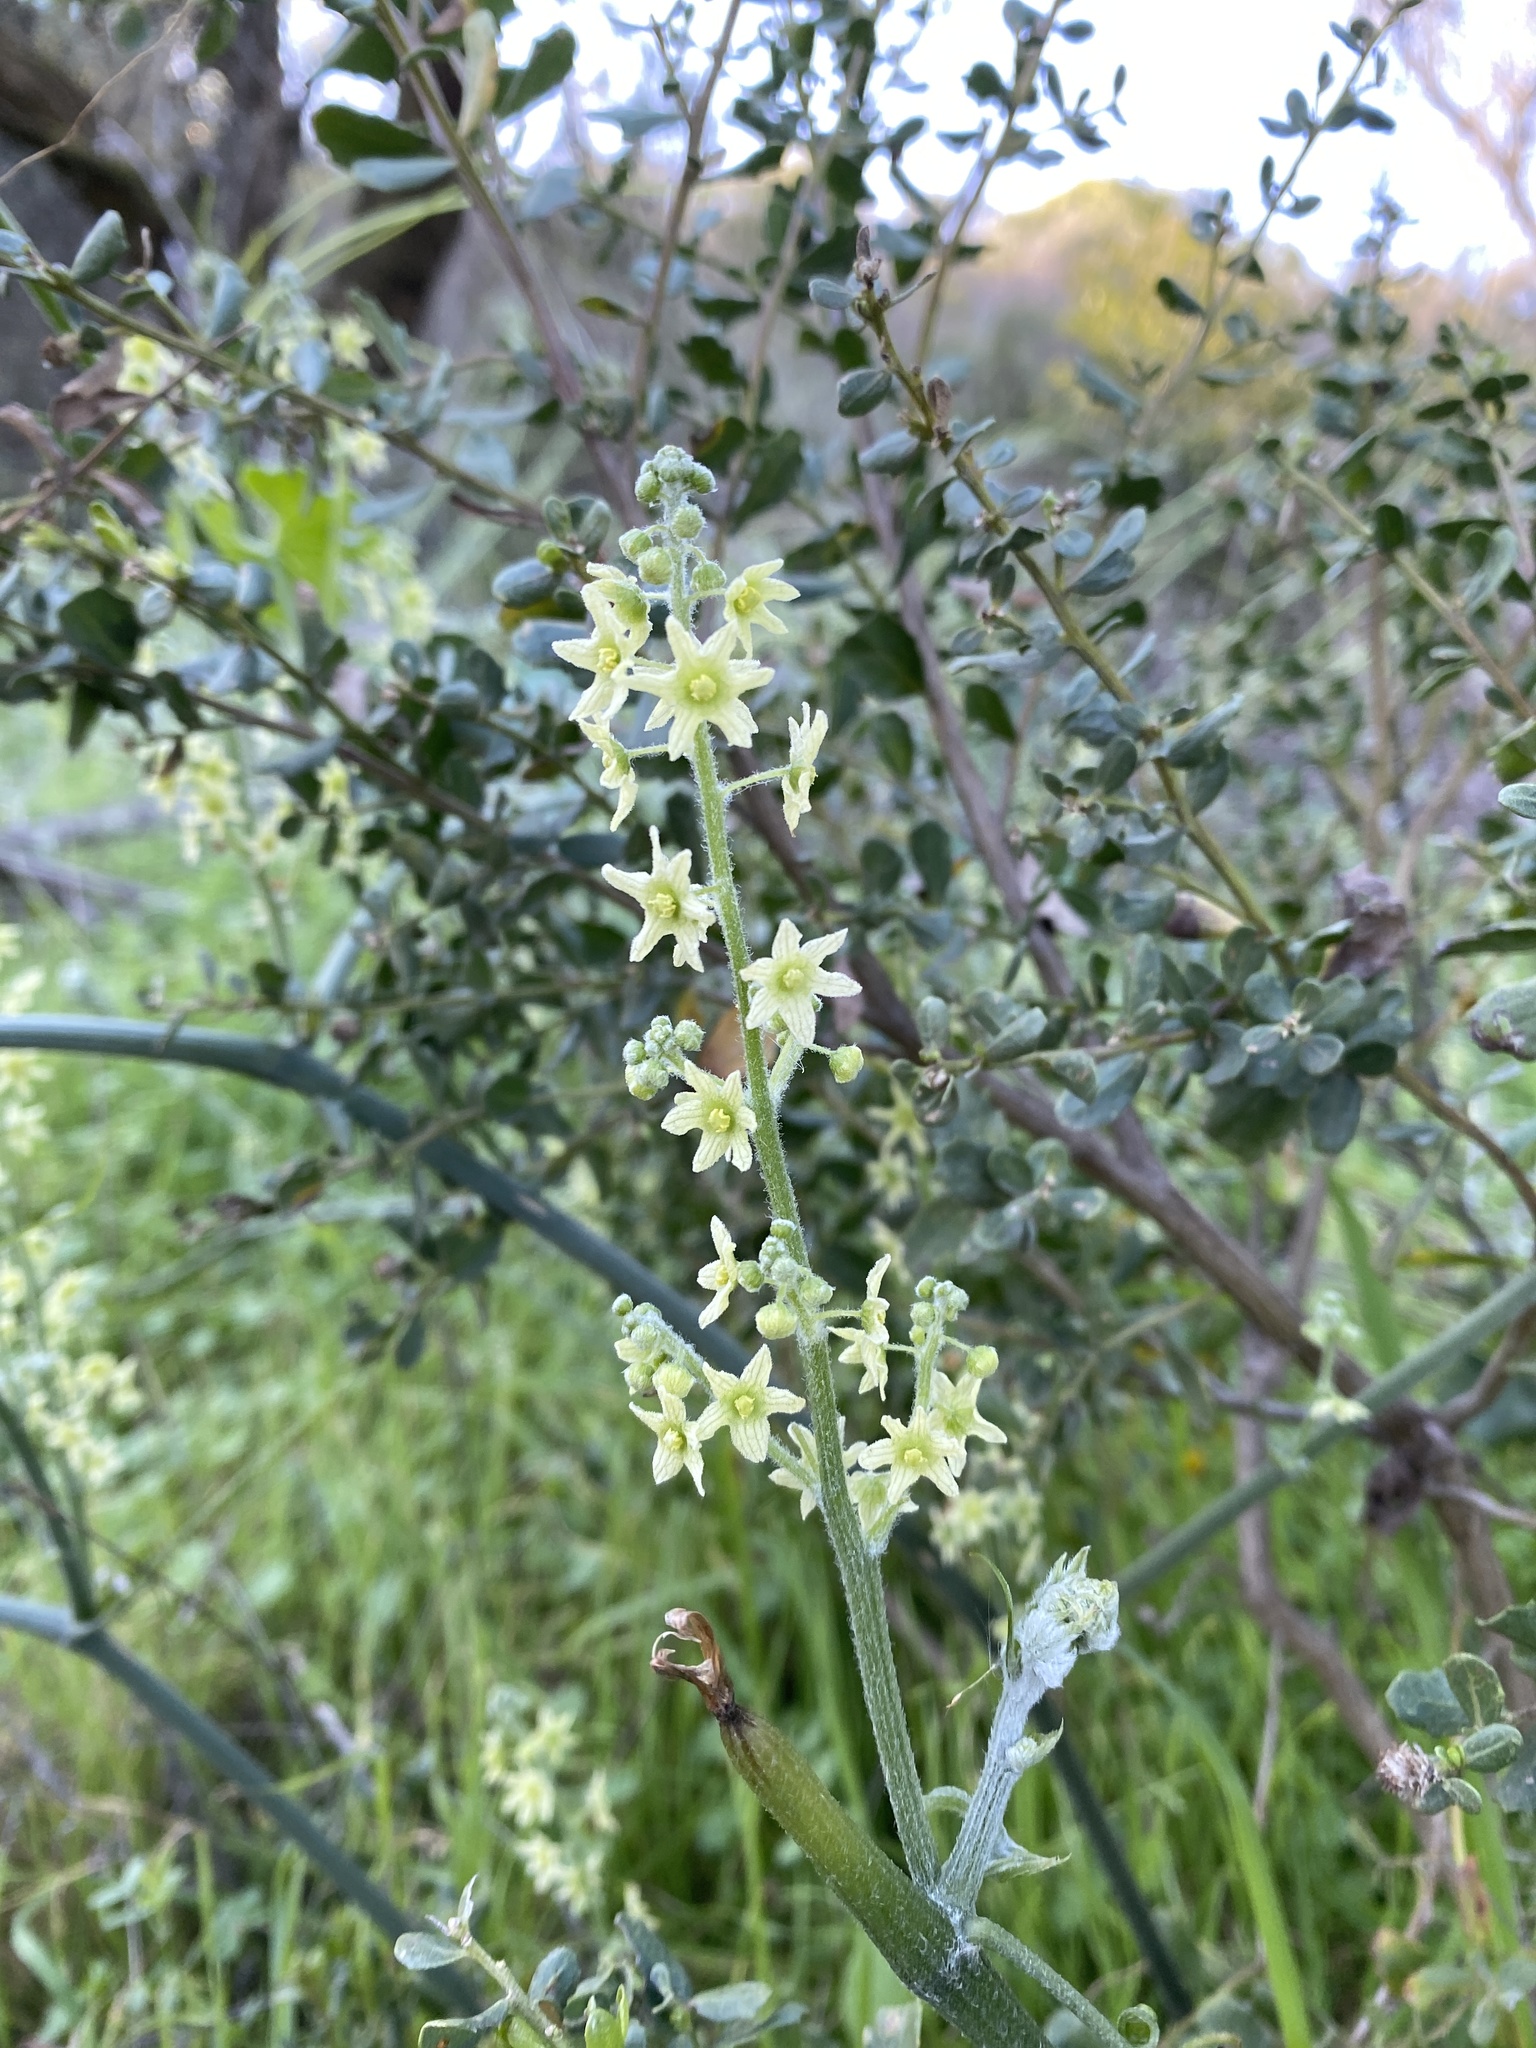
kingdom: Plantae
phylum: Tracheophyta
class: Magnoliopsida
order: Cucurbitales
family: Cucurbitaceae
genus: Marah
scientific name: Marah fabacea
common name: California manroot
